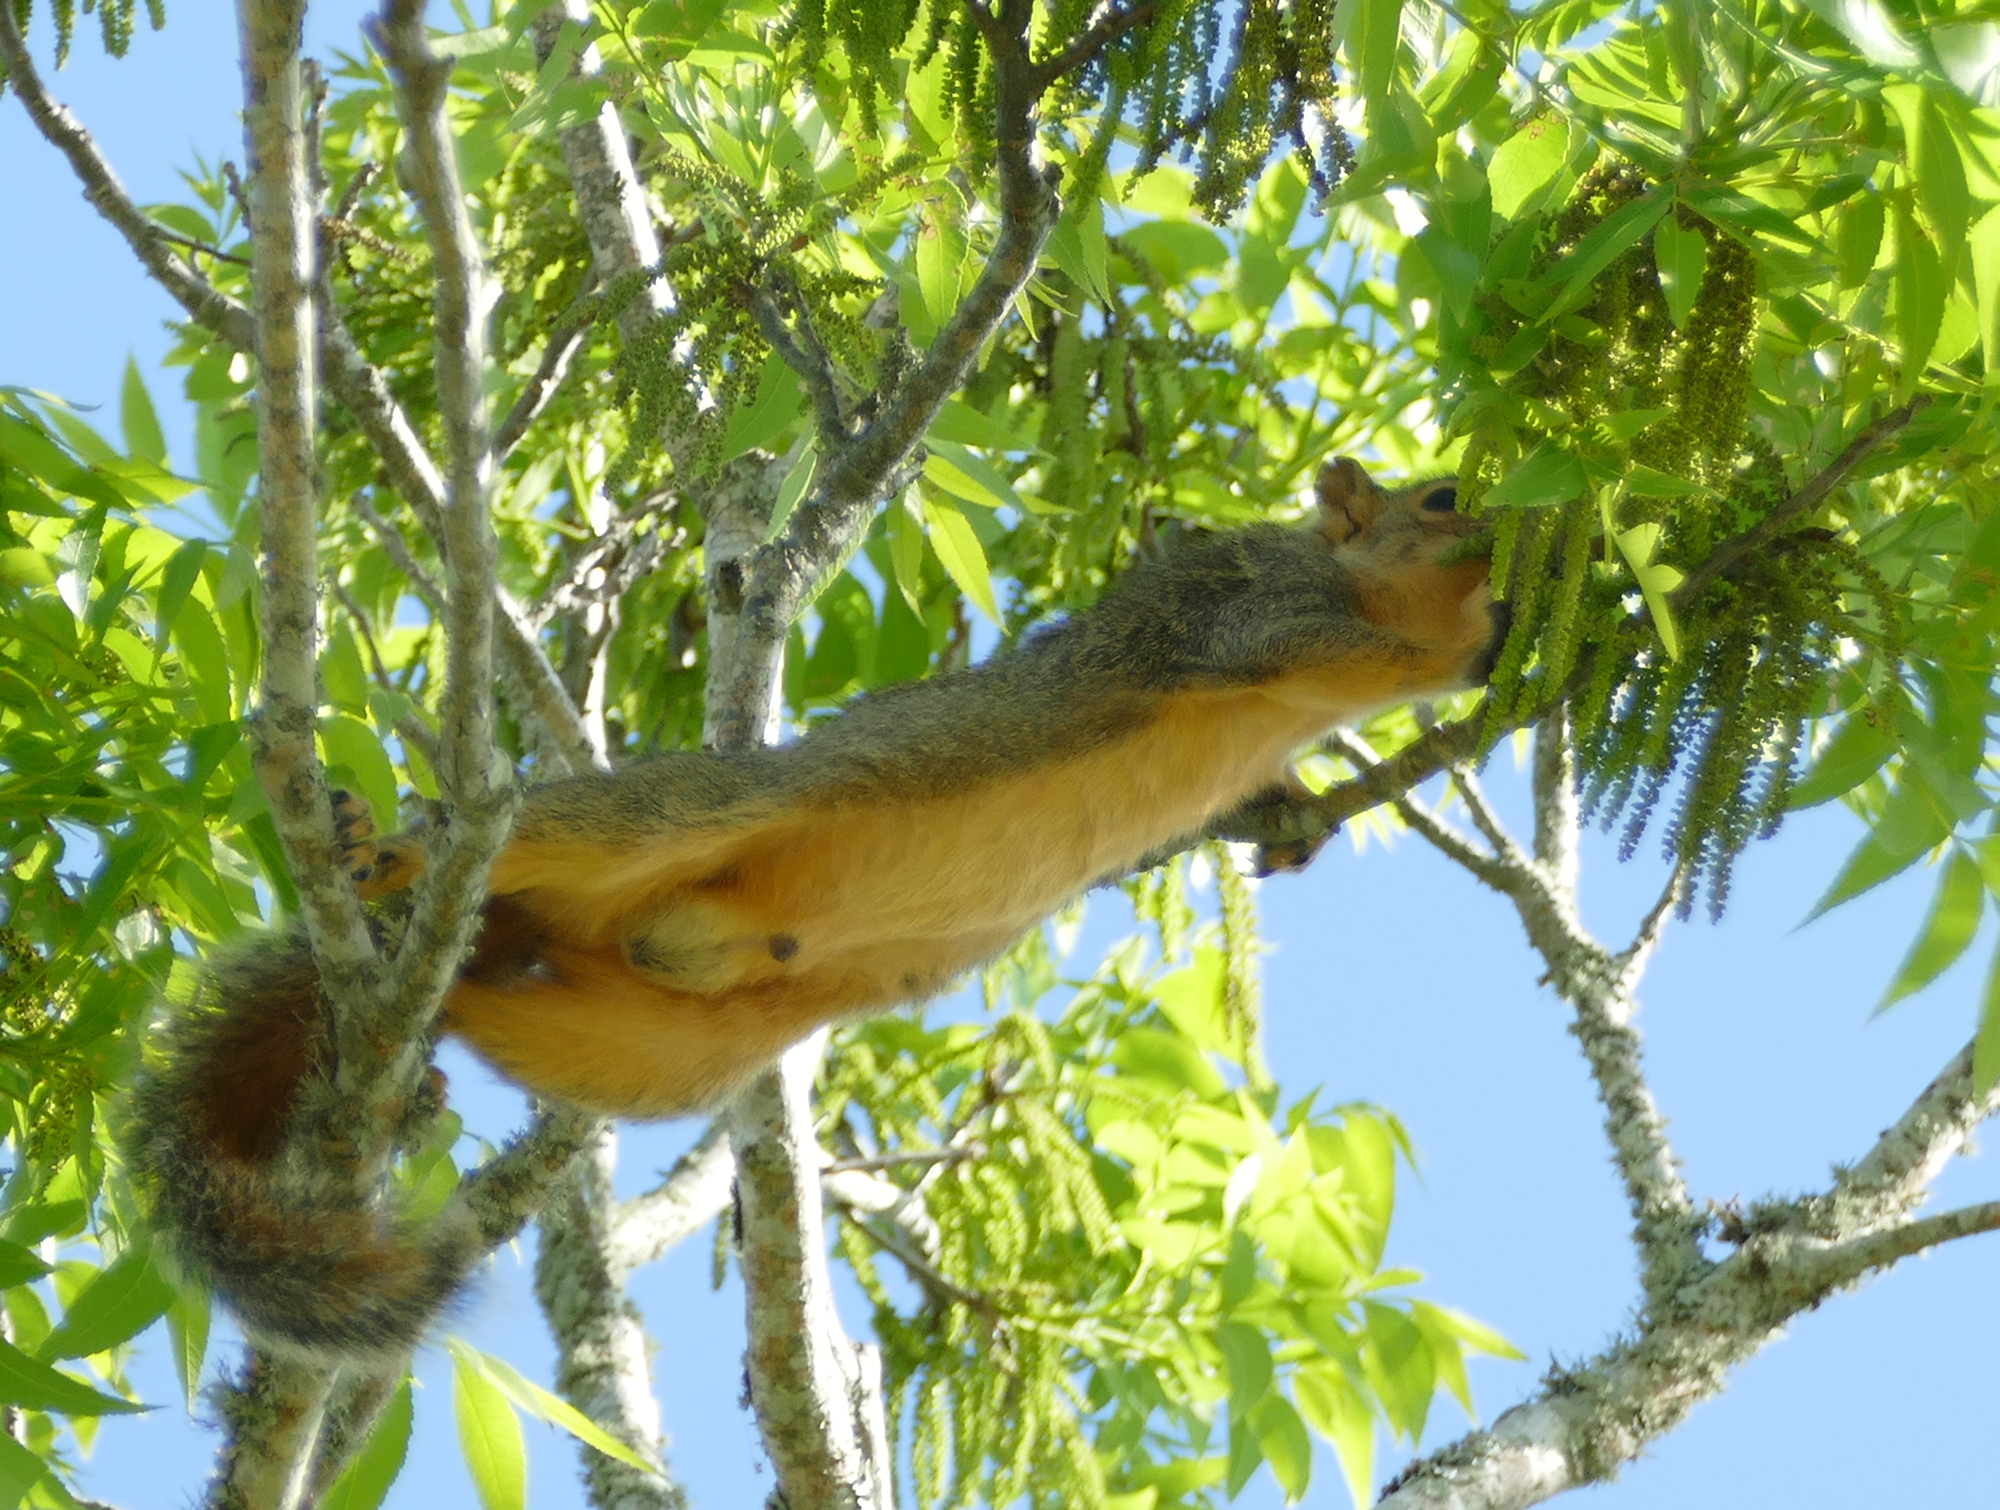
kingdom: Animalia
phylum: Chordata
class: Mammalia
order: Rodentia
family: Sciuridae
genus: Sciurus
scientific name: Sciurus niger
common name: Fox squirrel
